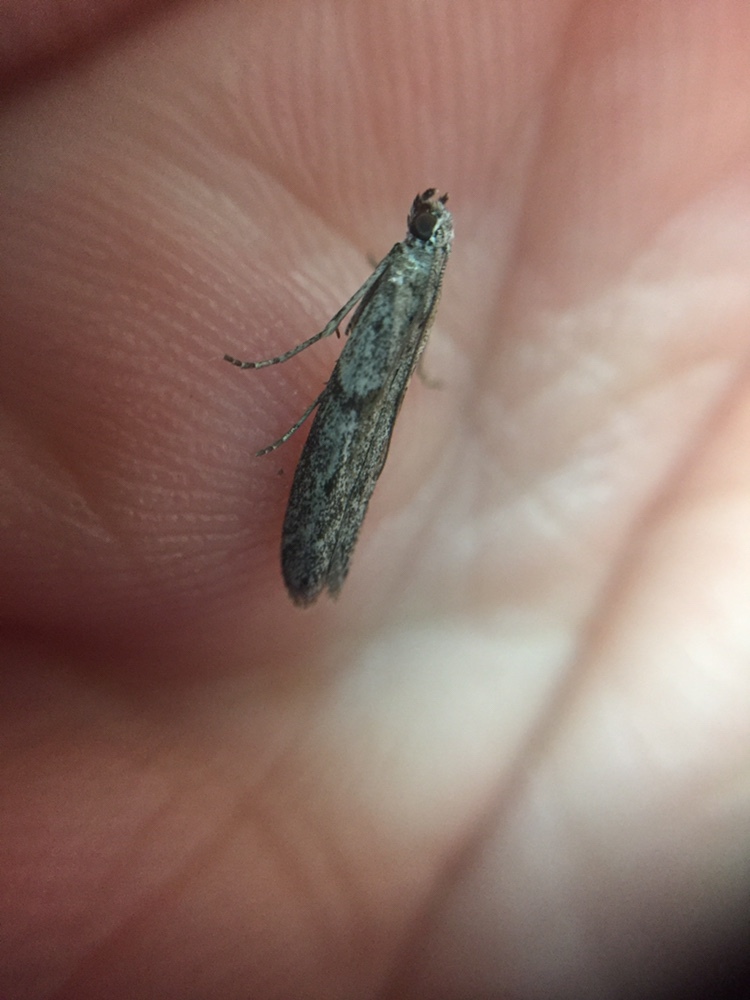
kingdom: Animalia
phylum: Arthropoda
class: Insecta
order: Lepidoptera
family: Pyralidae
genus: Patagoniodes
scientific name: Patagoniodes farinaria
